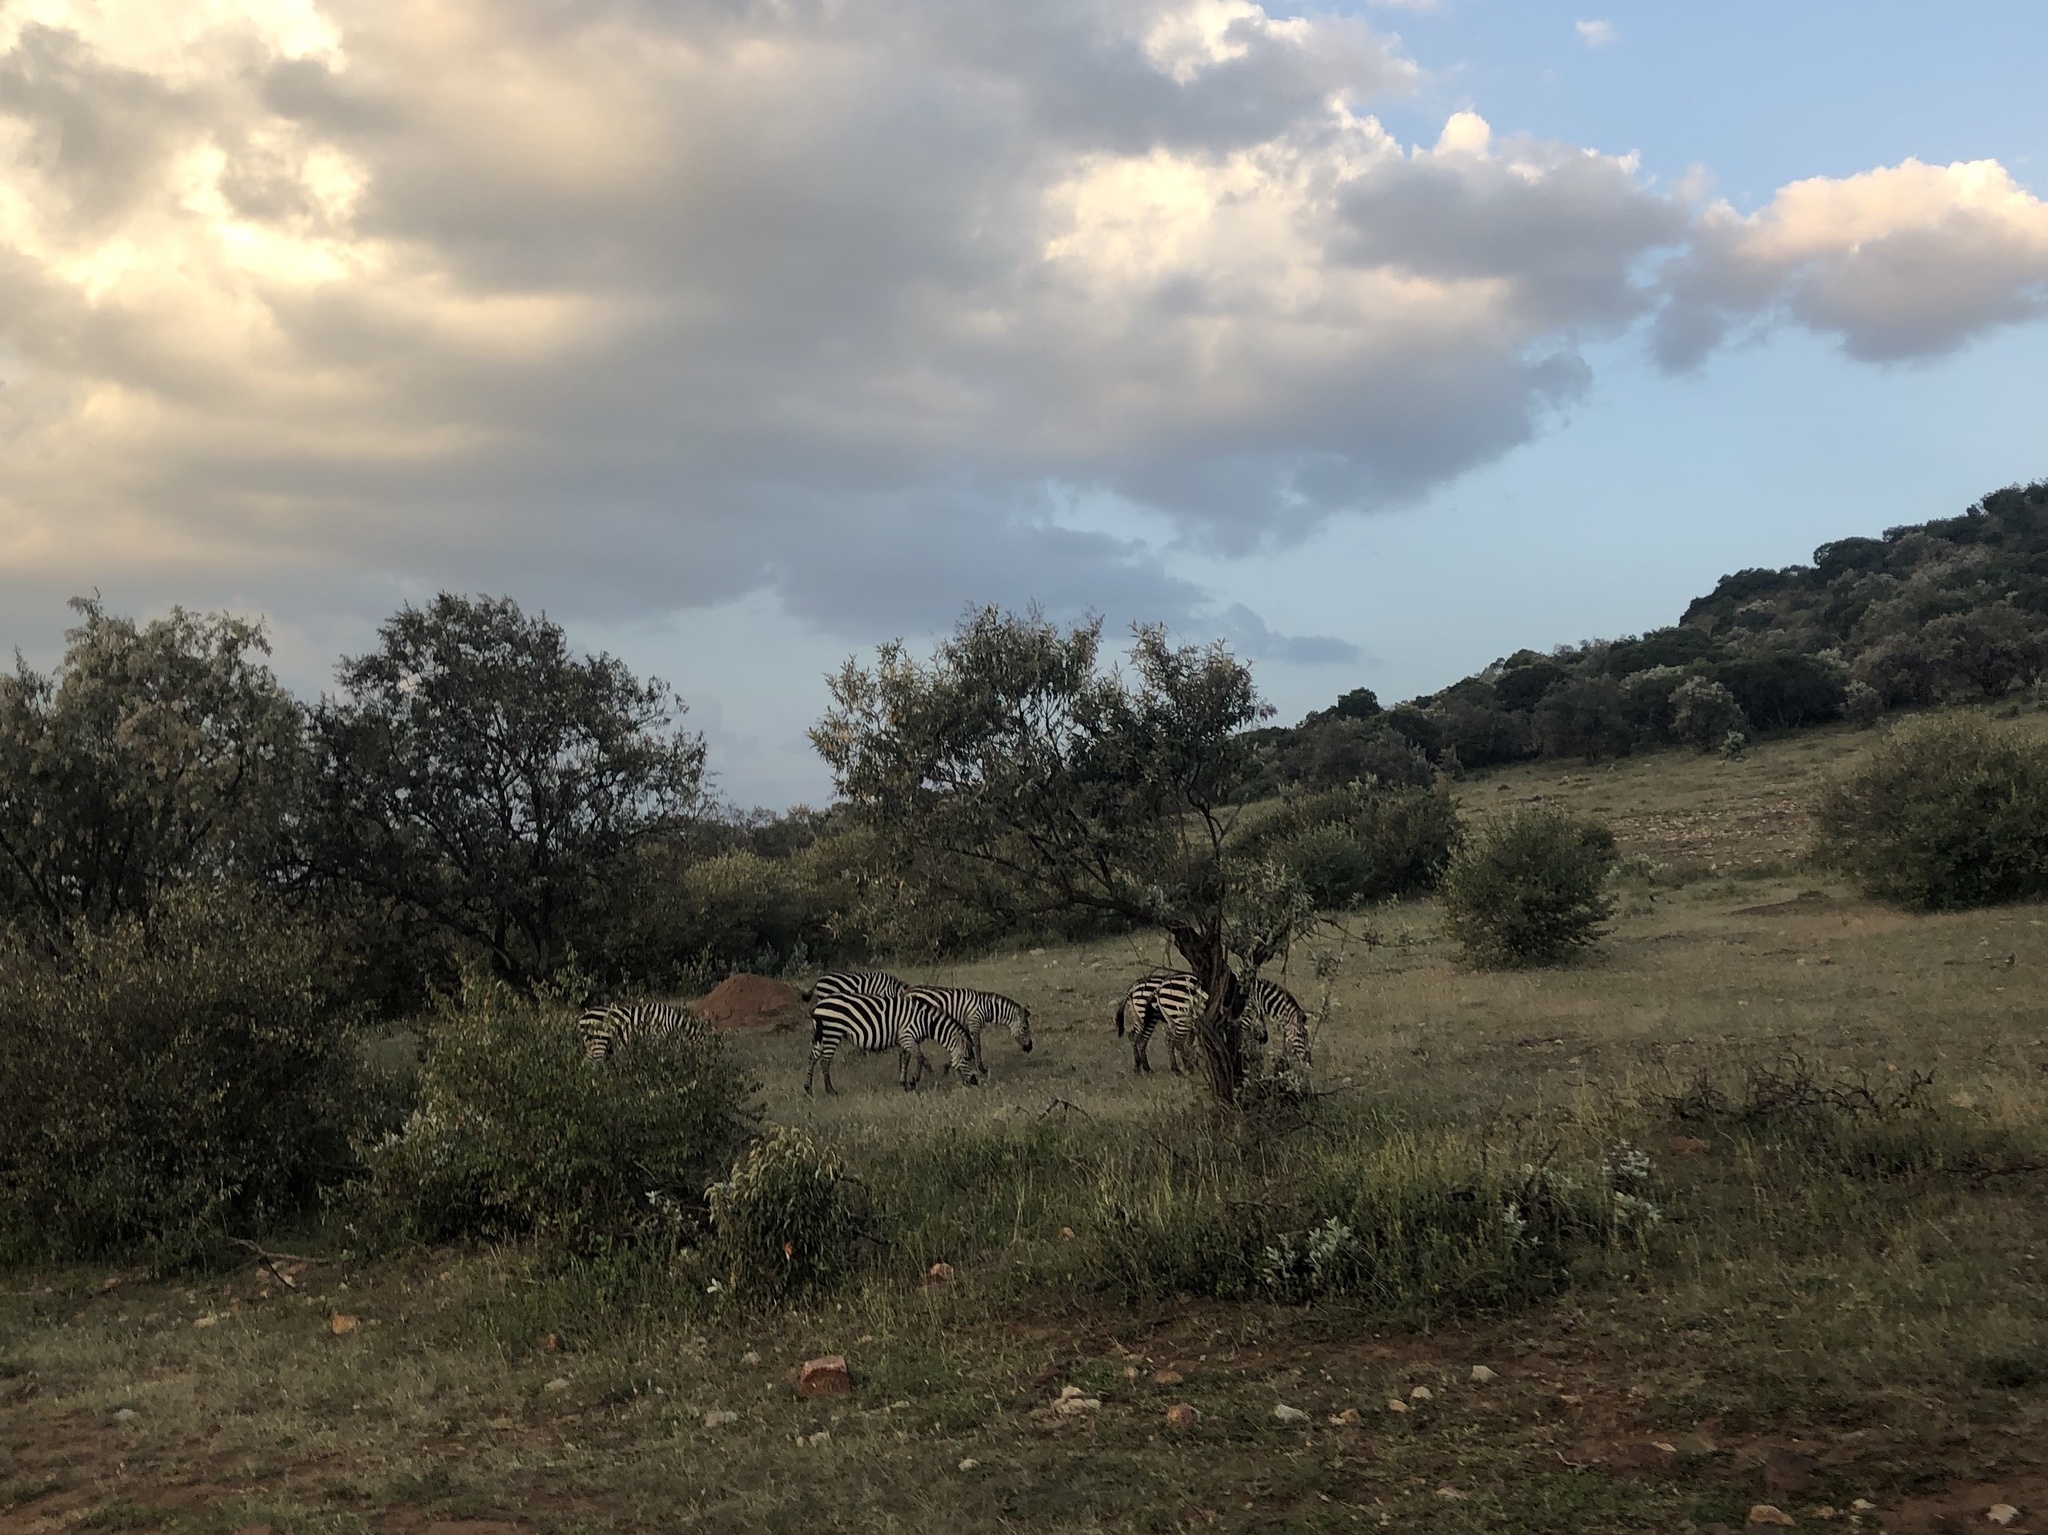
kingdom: Animalia
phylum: Chordata
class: Mammalia
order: Perissodactyla
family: Equidae
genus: Equus
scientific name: Equus quagga
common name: Plains zebra
